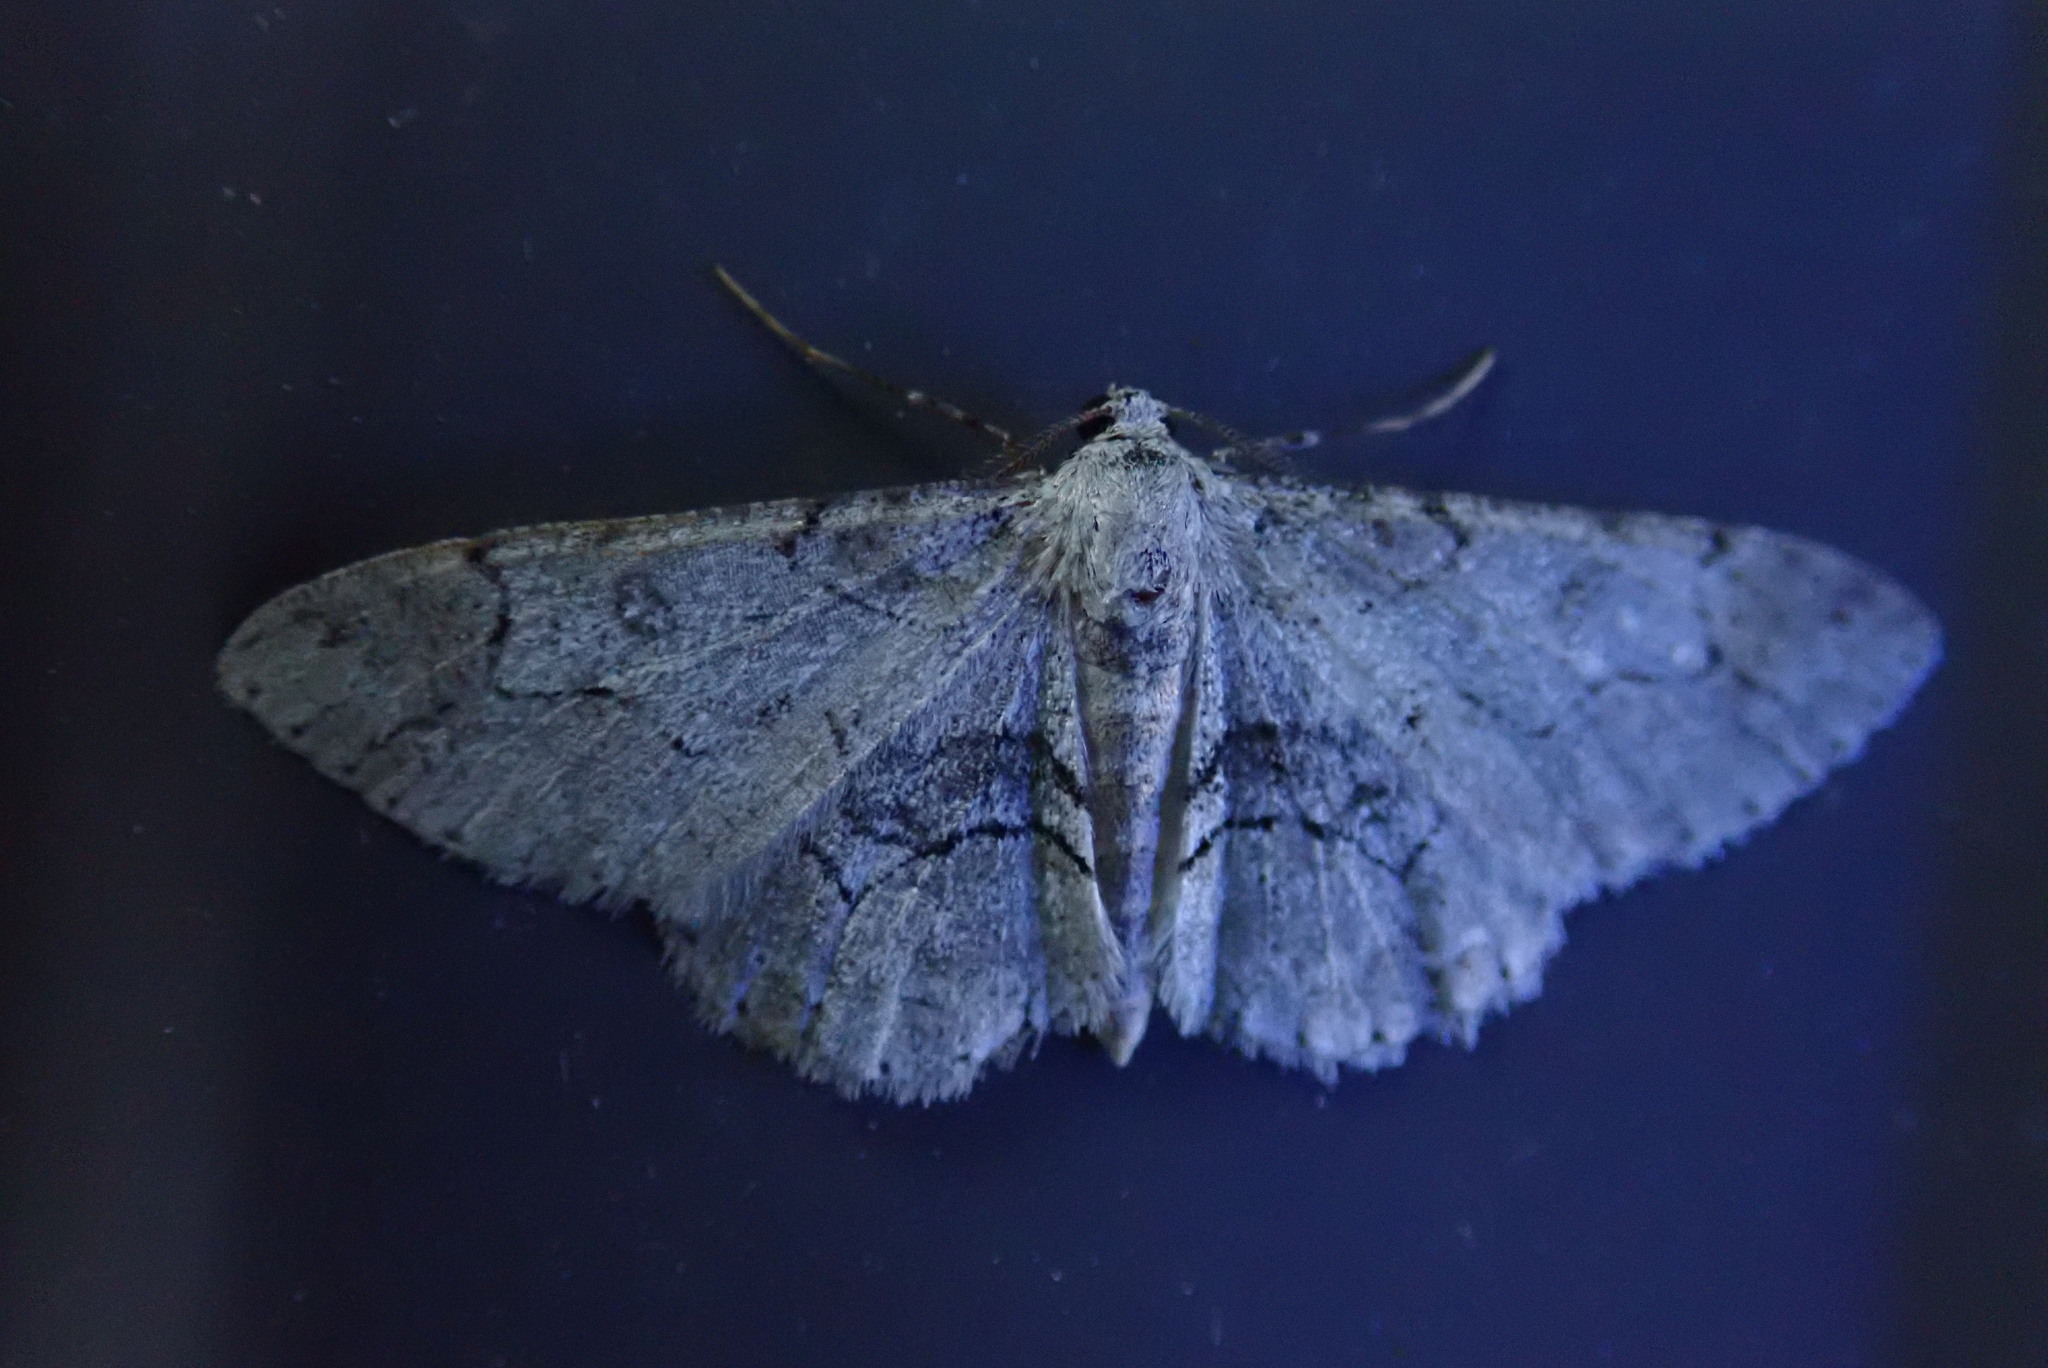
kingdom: Animalia
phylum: Arthropoda
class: Insecta
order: Lepidoptera
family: Geometridae
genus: Iridopsis
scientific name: Iridopsis larvaria
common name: Bent-line gray
